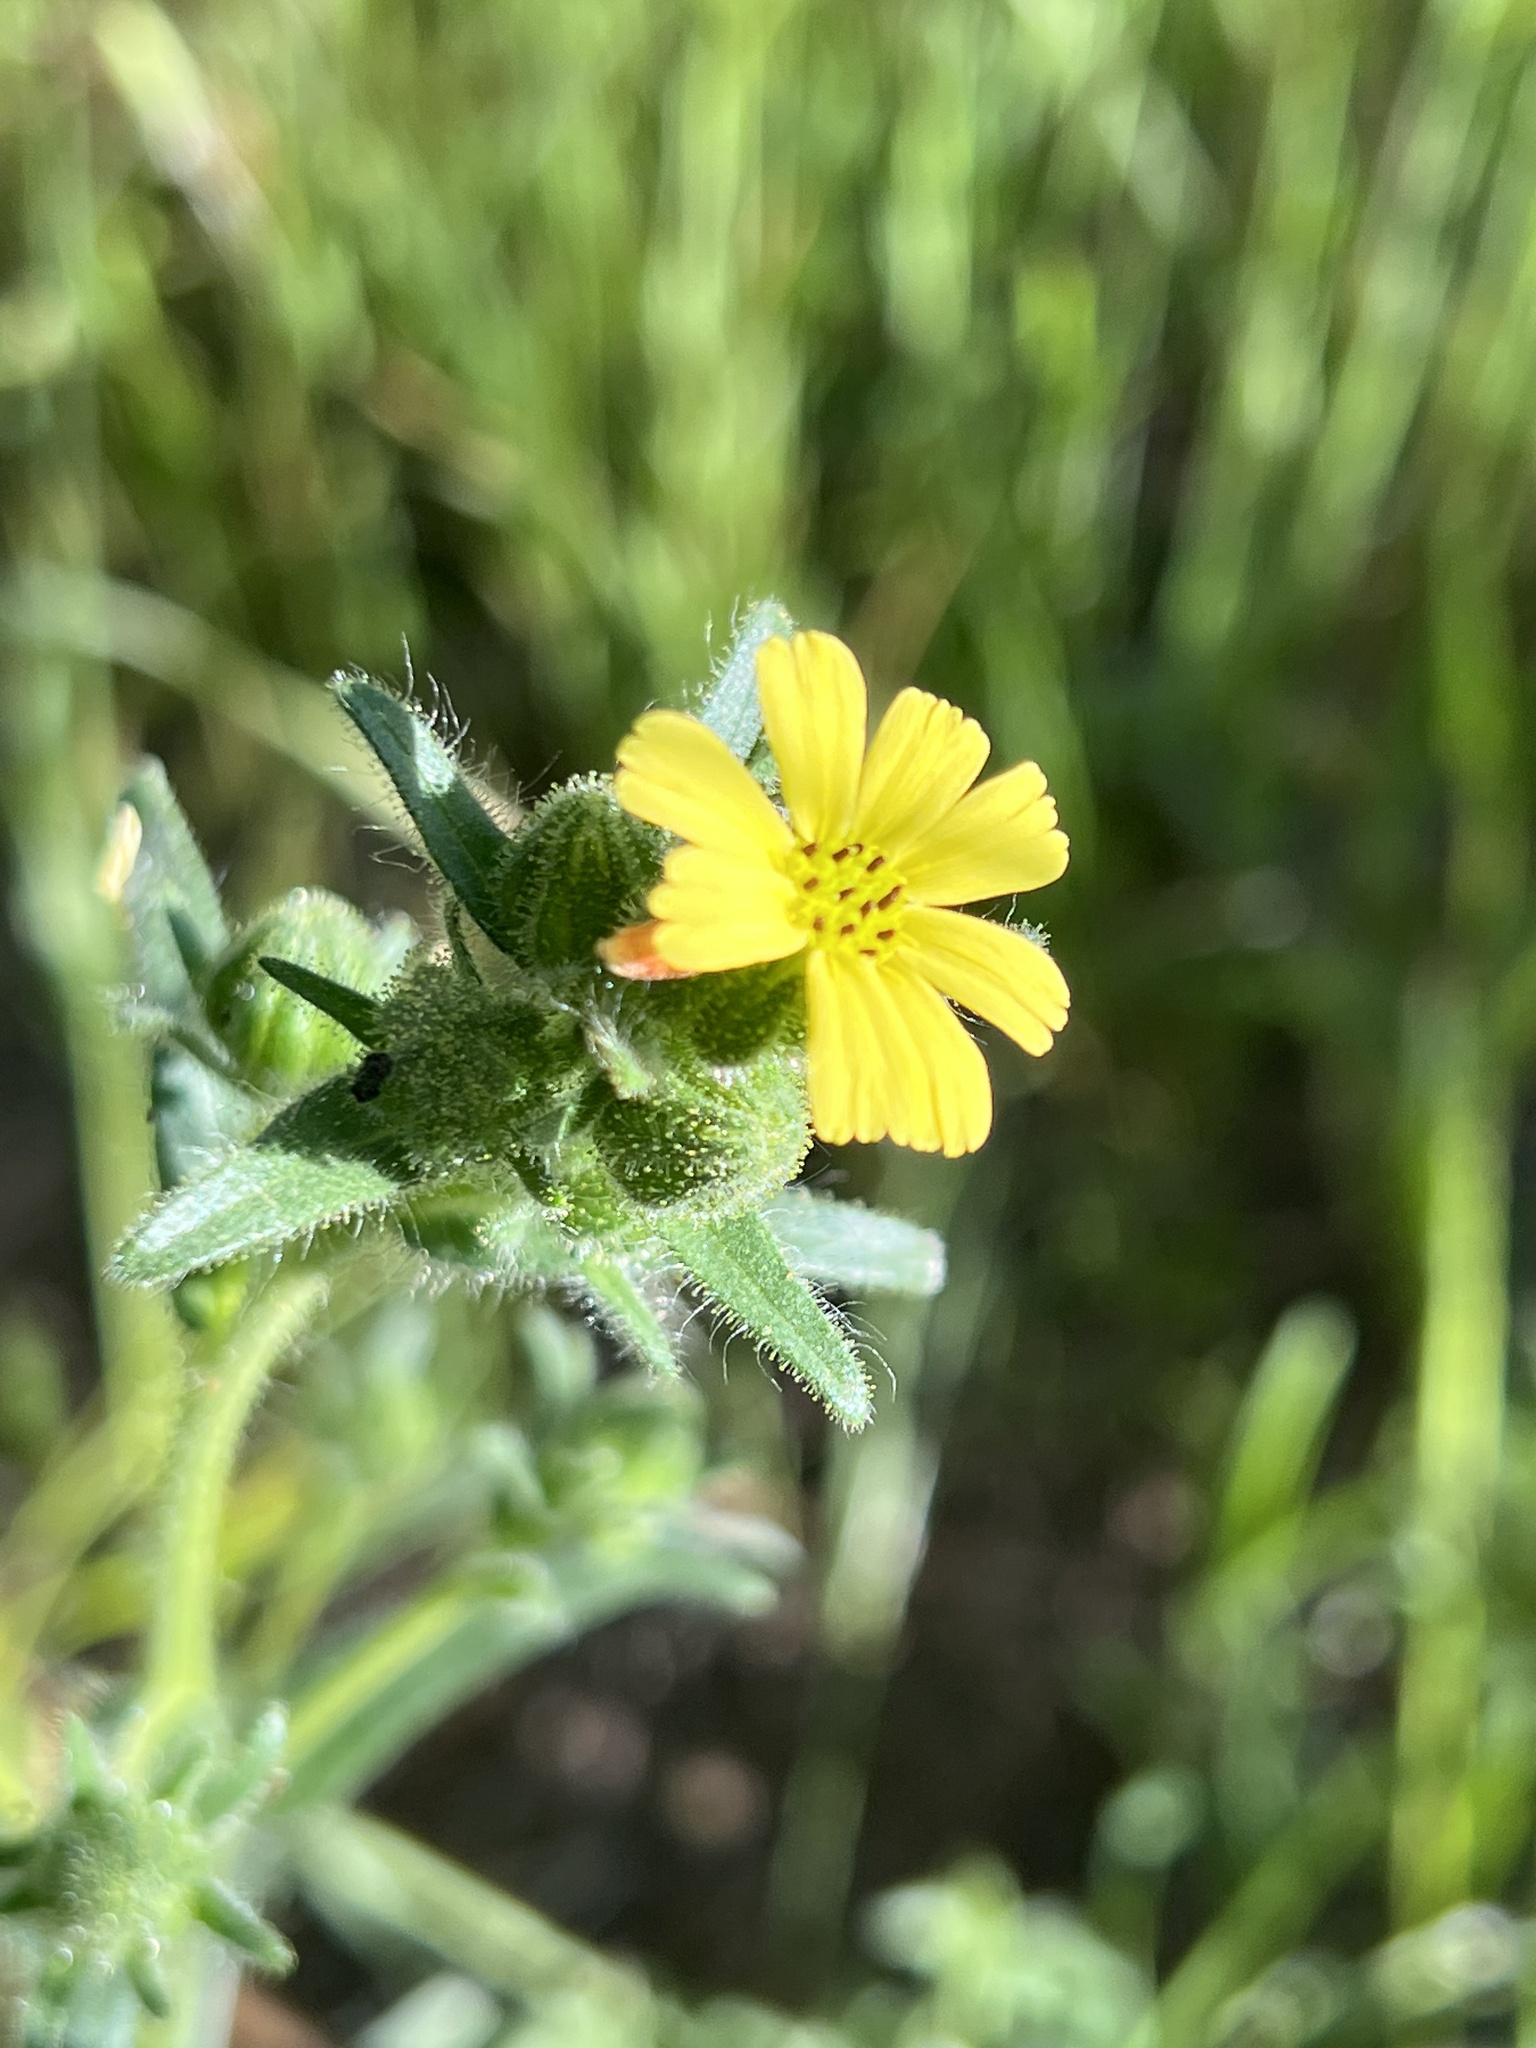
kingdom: Plantae
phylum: Tracheophyta
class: Magnoliopsida
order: Asterales
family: Asteraceae
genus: Madia
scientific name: Madia gracilis
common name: Grassy tarweed
